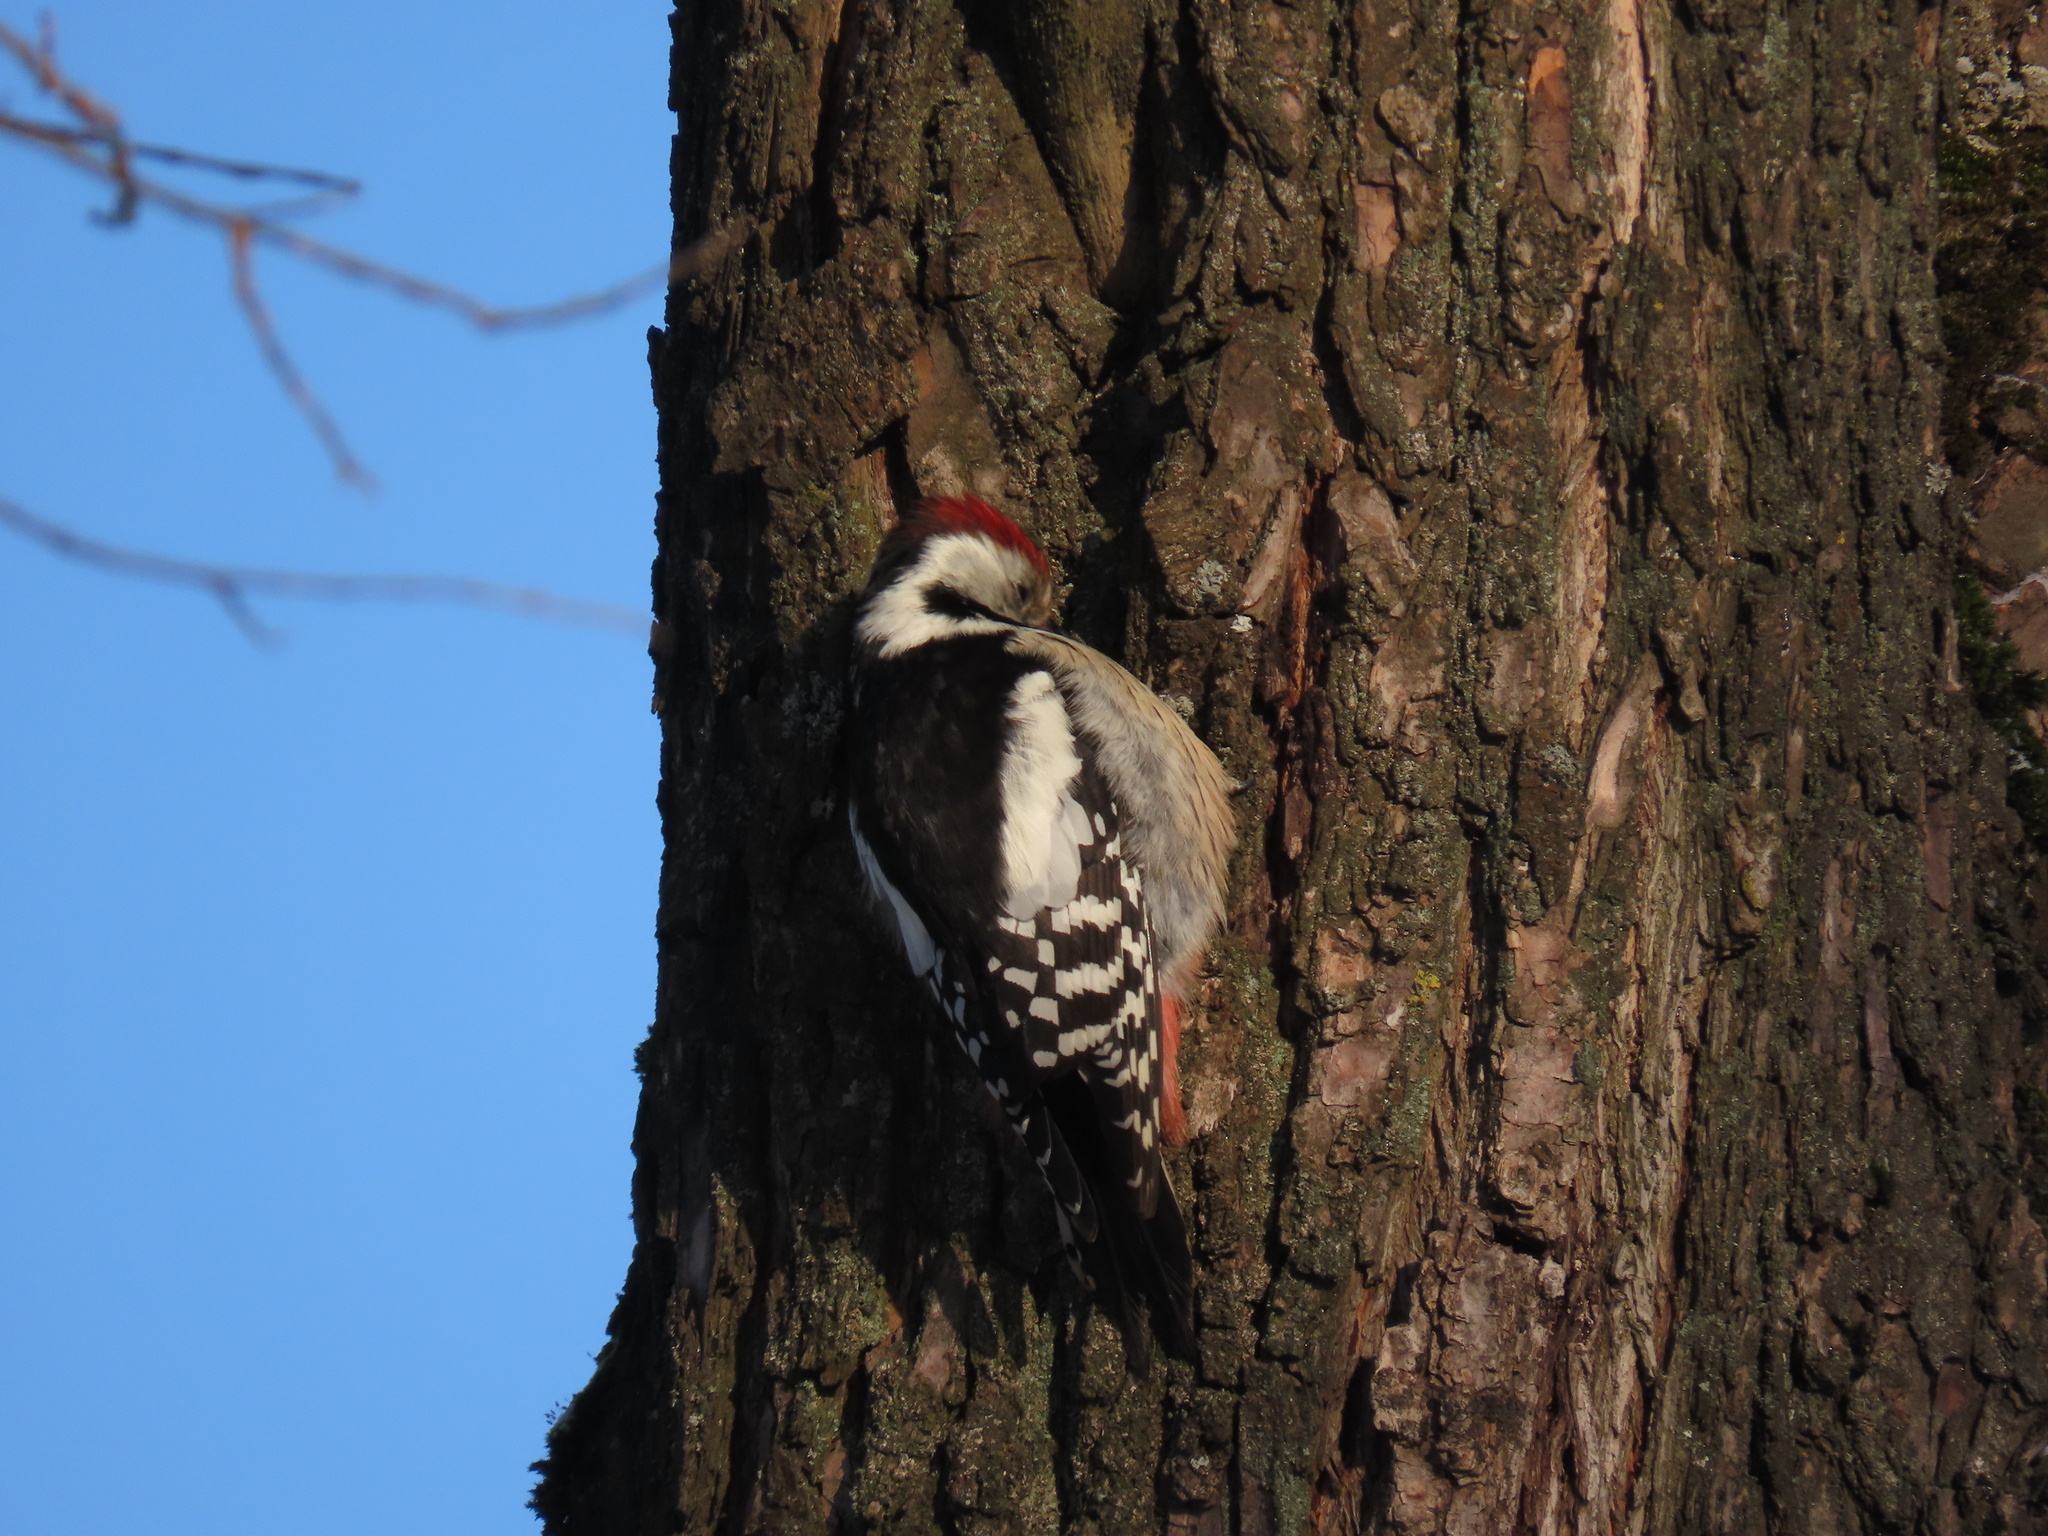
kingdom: Animalia
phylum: Chordata
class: Aves
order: Piciformes
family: Picidae
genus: Dendrocoptes
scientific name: Dendrocoptes medius
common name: Middle spotted woodpecker
